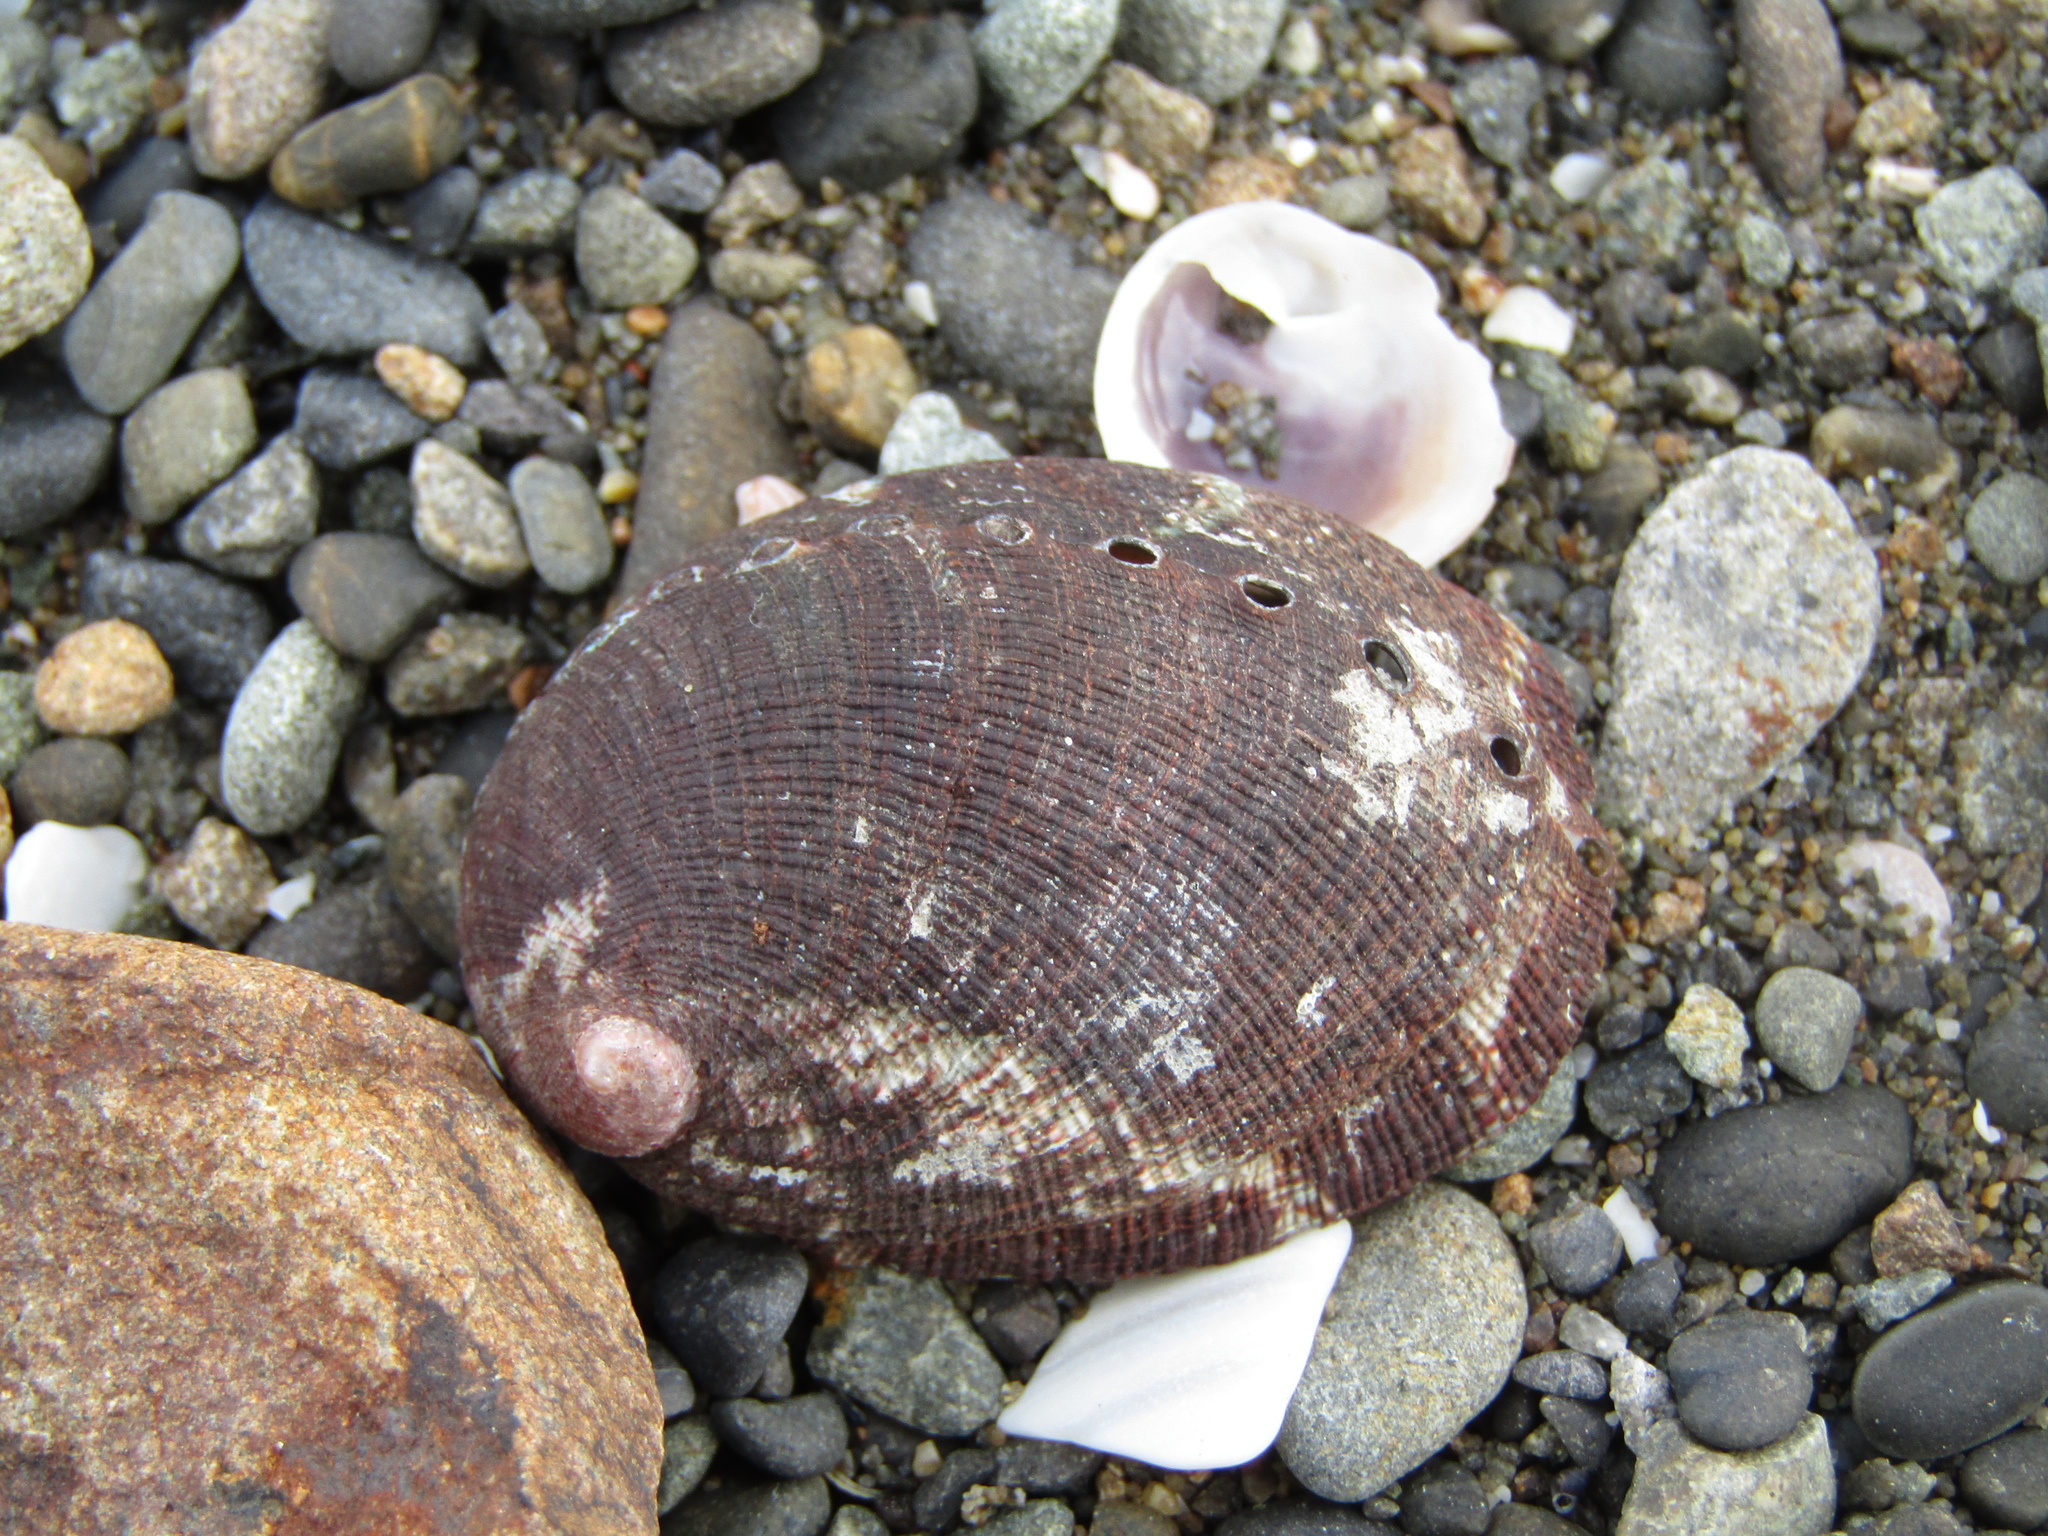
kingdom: Animalia
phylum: Mollusca
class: Gastropoda
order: Lepetellida
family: Haliotidae
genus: Haliotis
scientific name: Haliotis virginea
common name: Whitefoot paua
